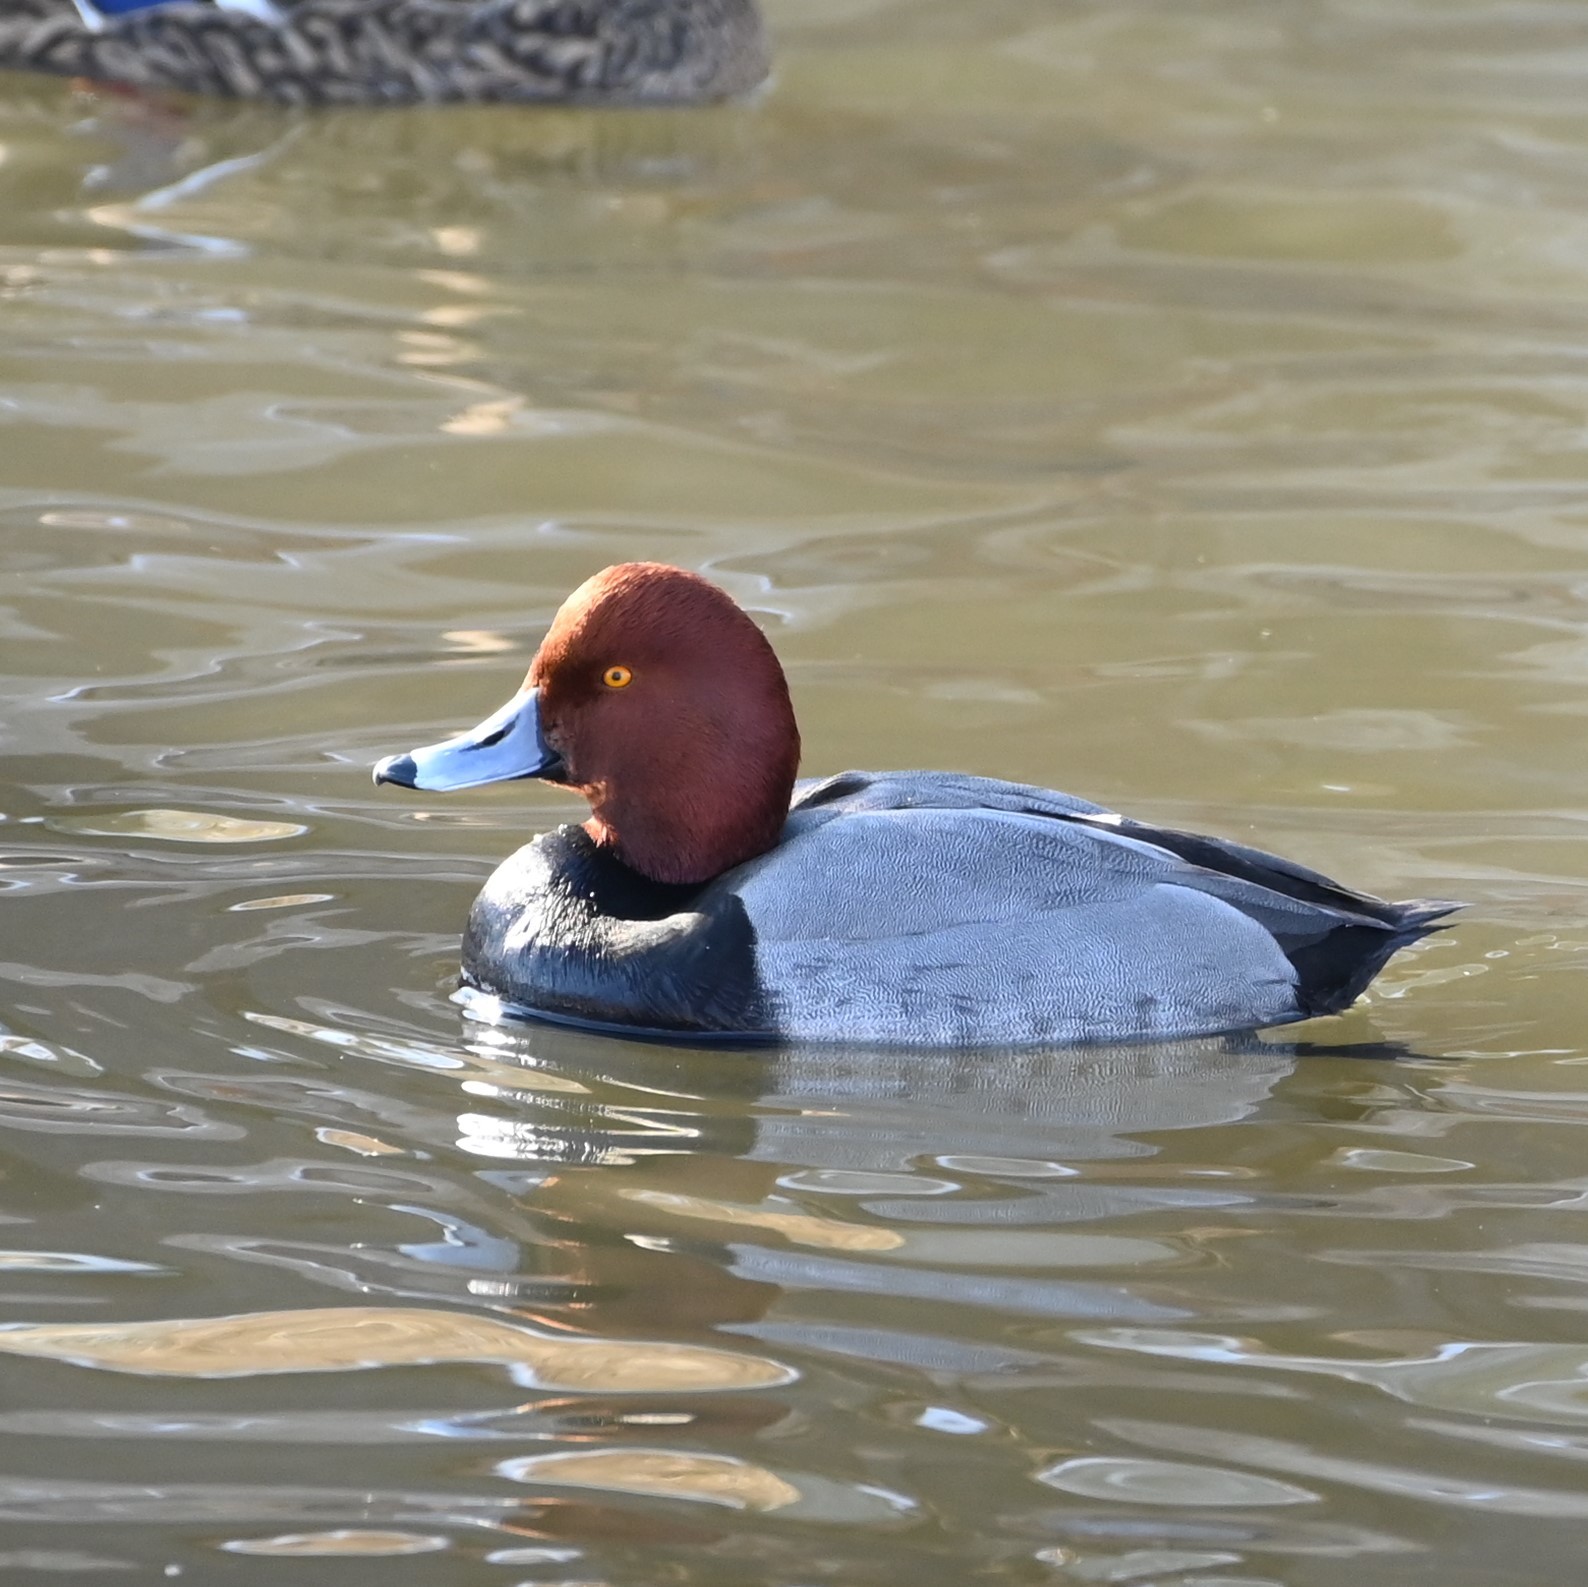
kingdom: Animalia
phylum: Chordata
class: Aves
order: Anseriformes
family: Anatidae
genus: Aythya
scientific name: Aythya americana
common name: Redhead
